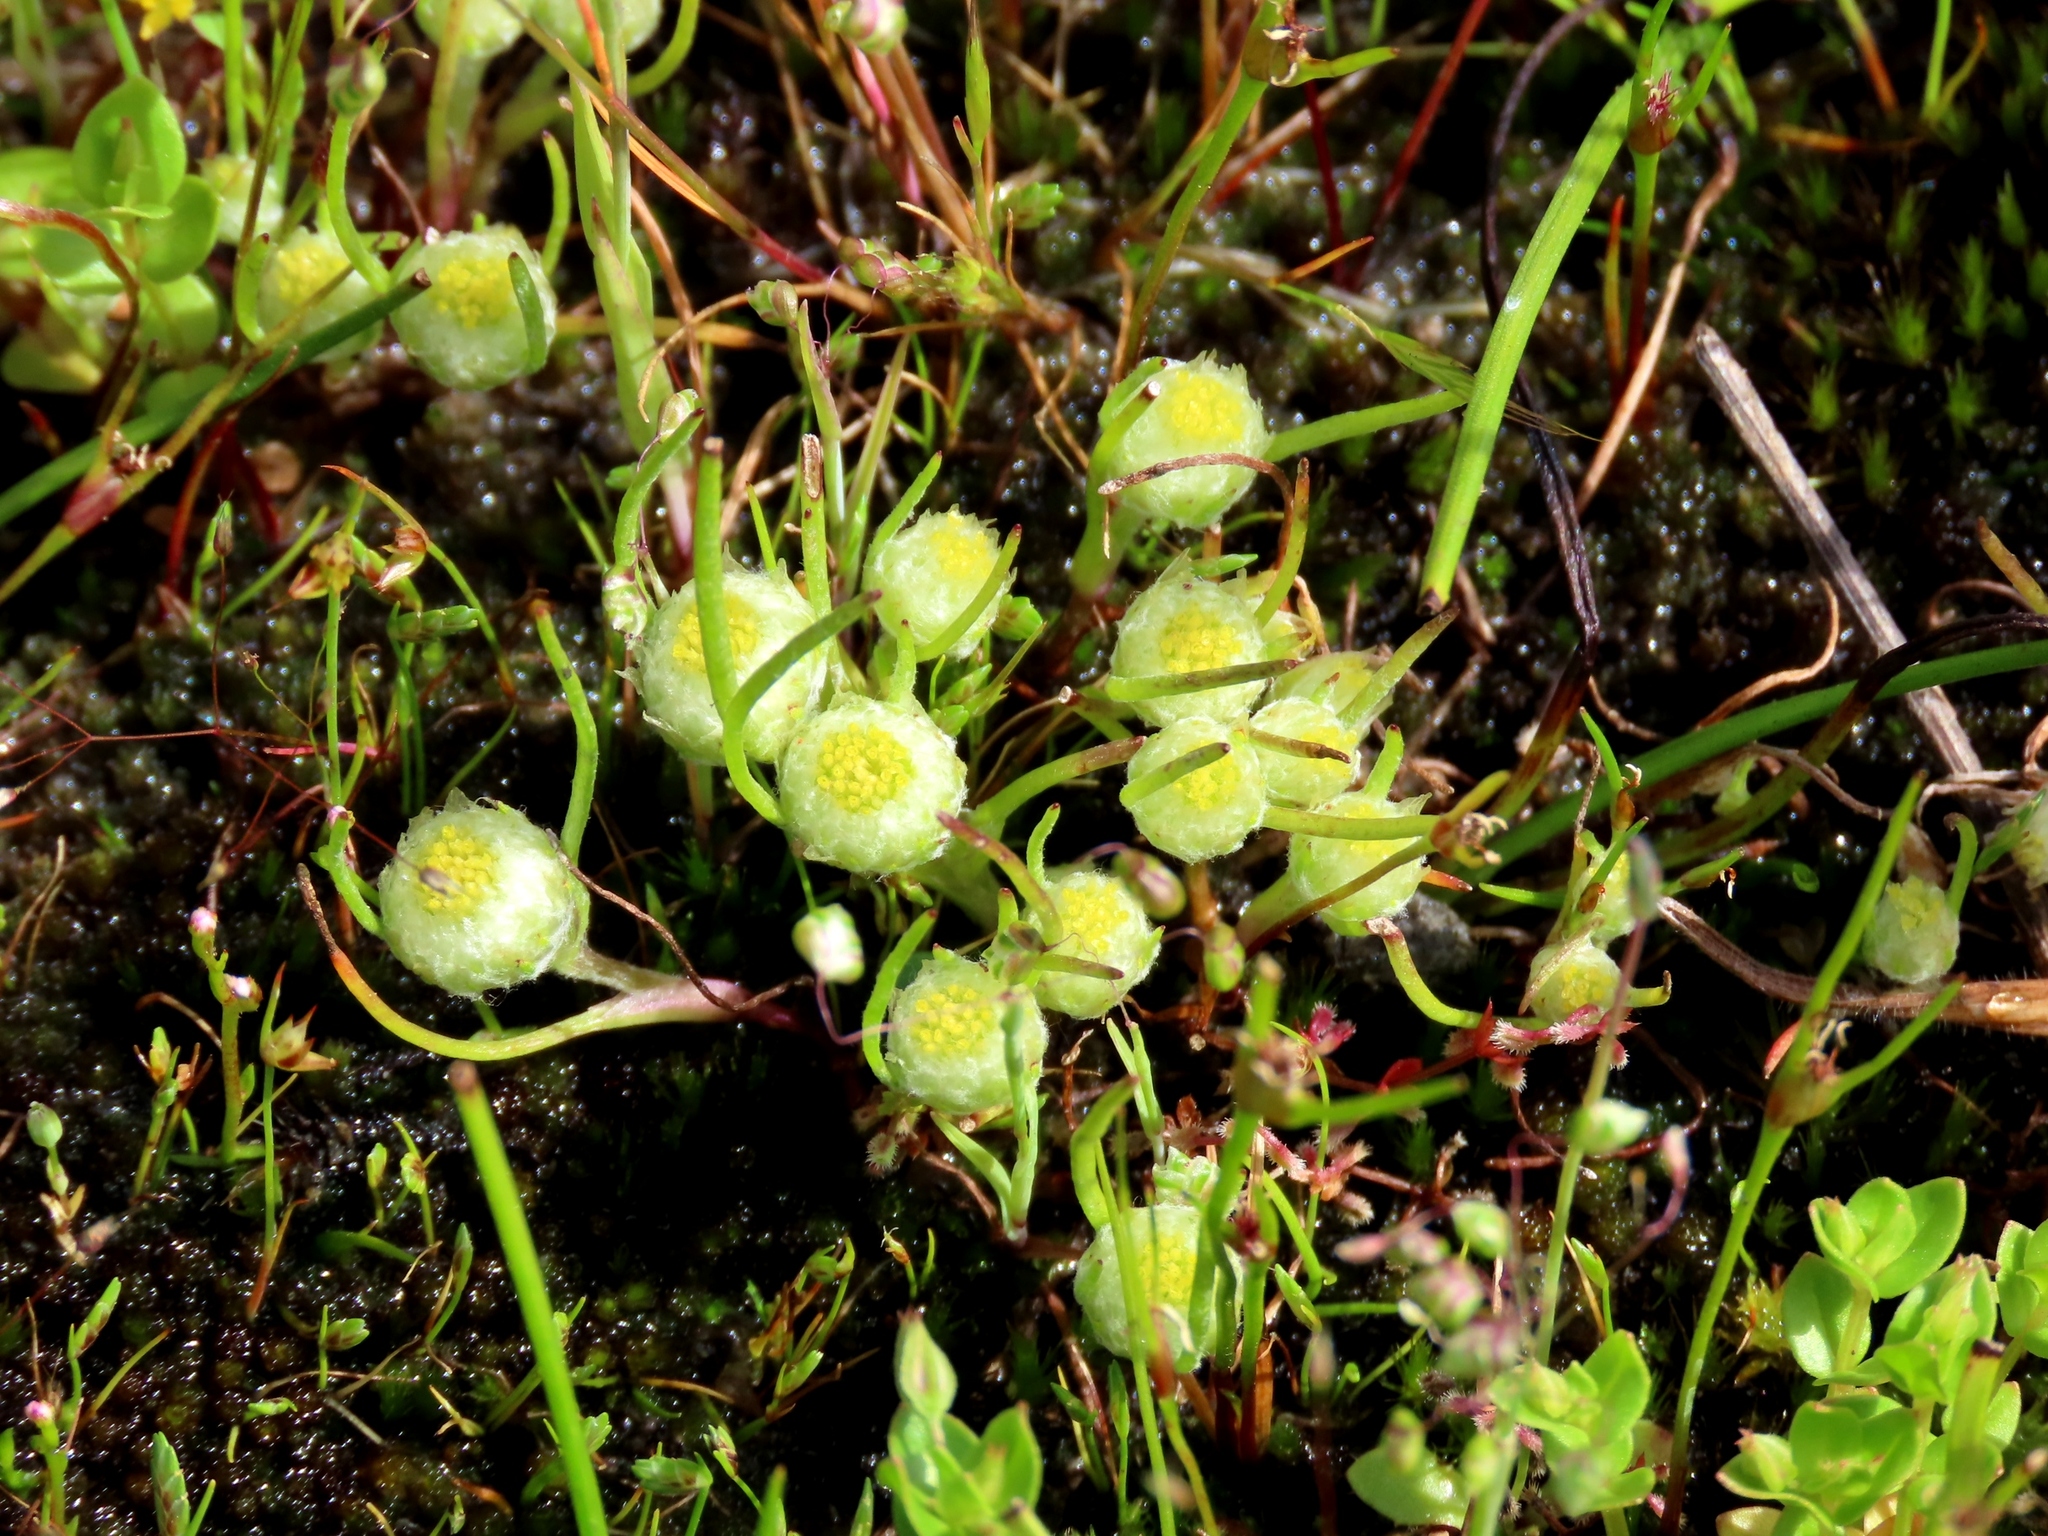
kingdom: Plantae
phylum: Tracheophyta
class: Magnoliopsida
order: Asterales
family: Asteraceae
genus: Myriocephalus
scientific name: Myriocephalus rhizocephalus
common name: Tufted woolly-heads
